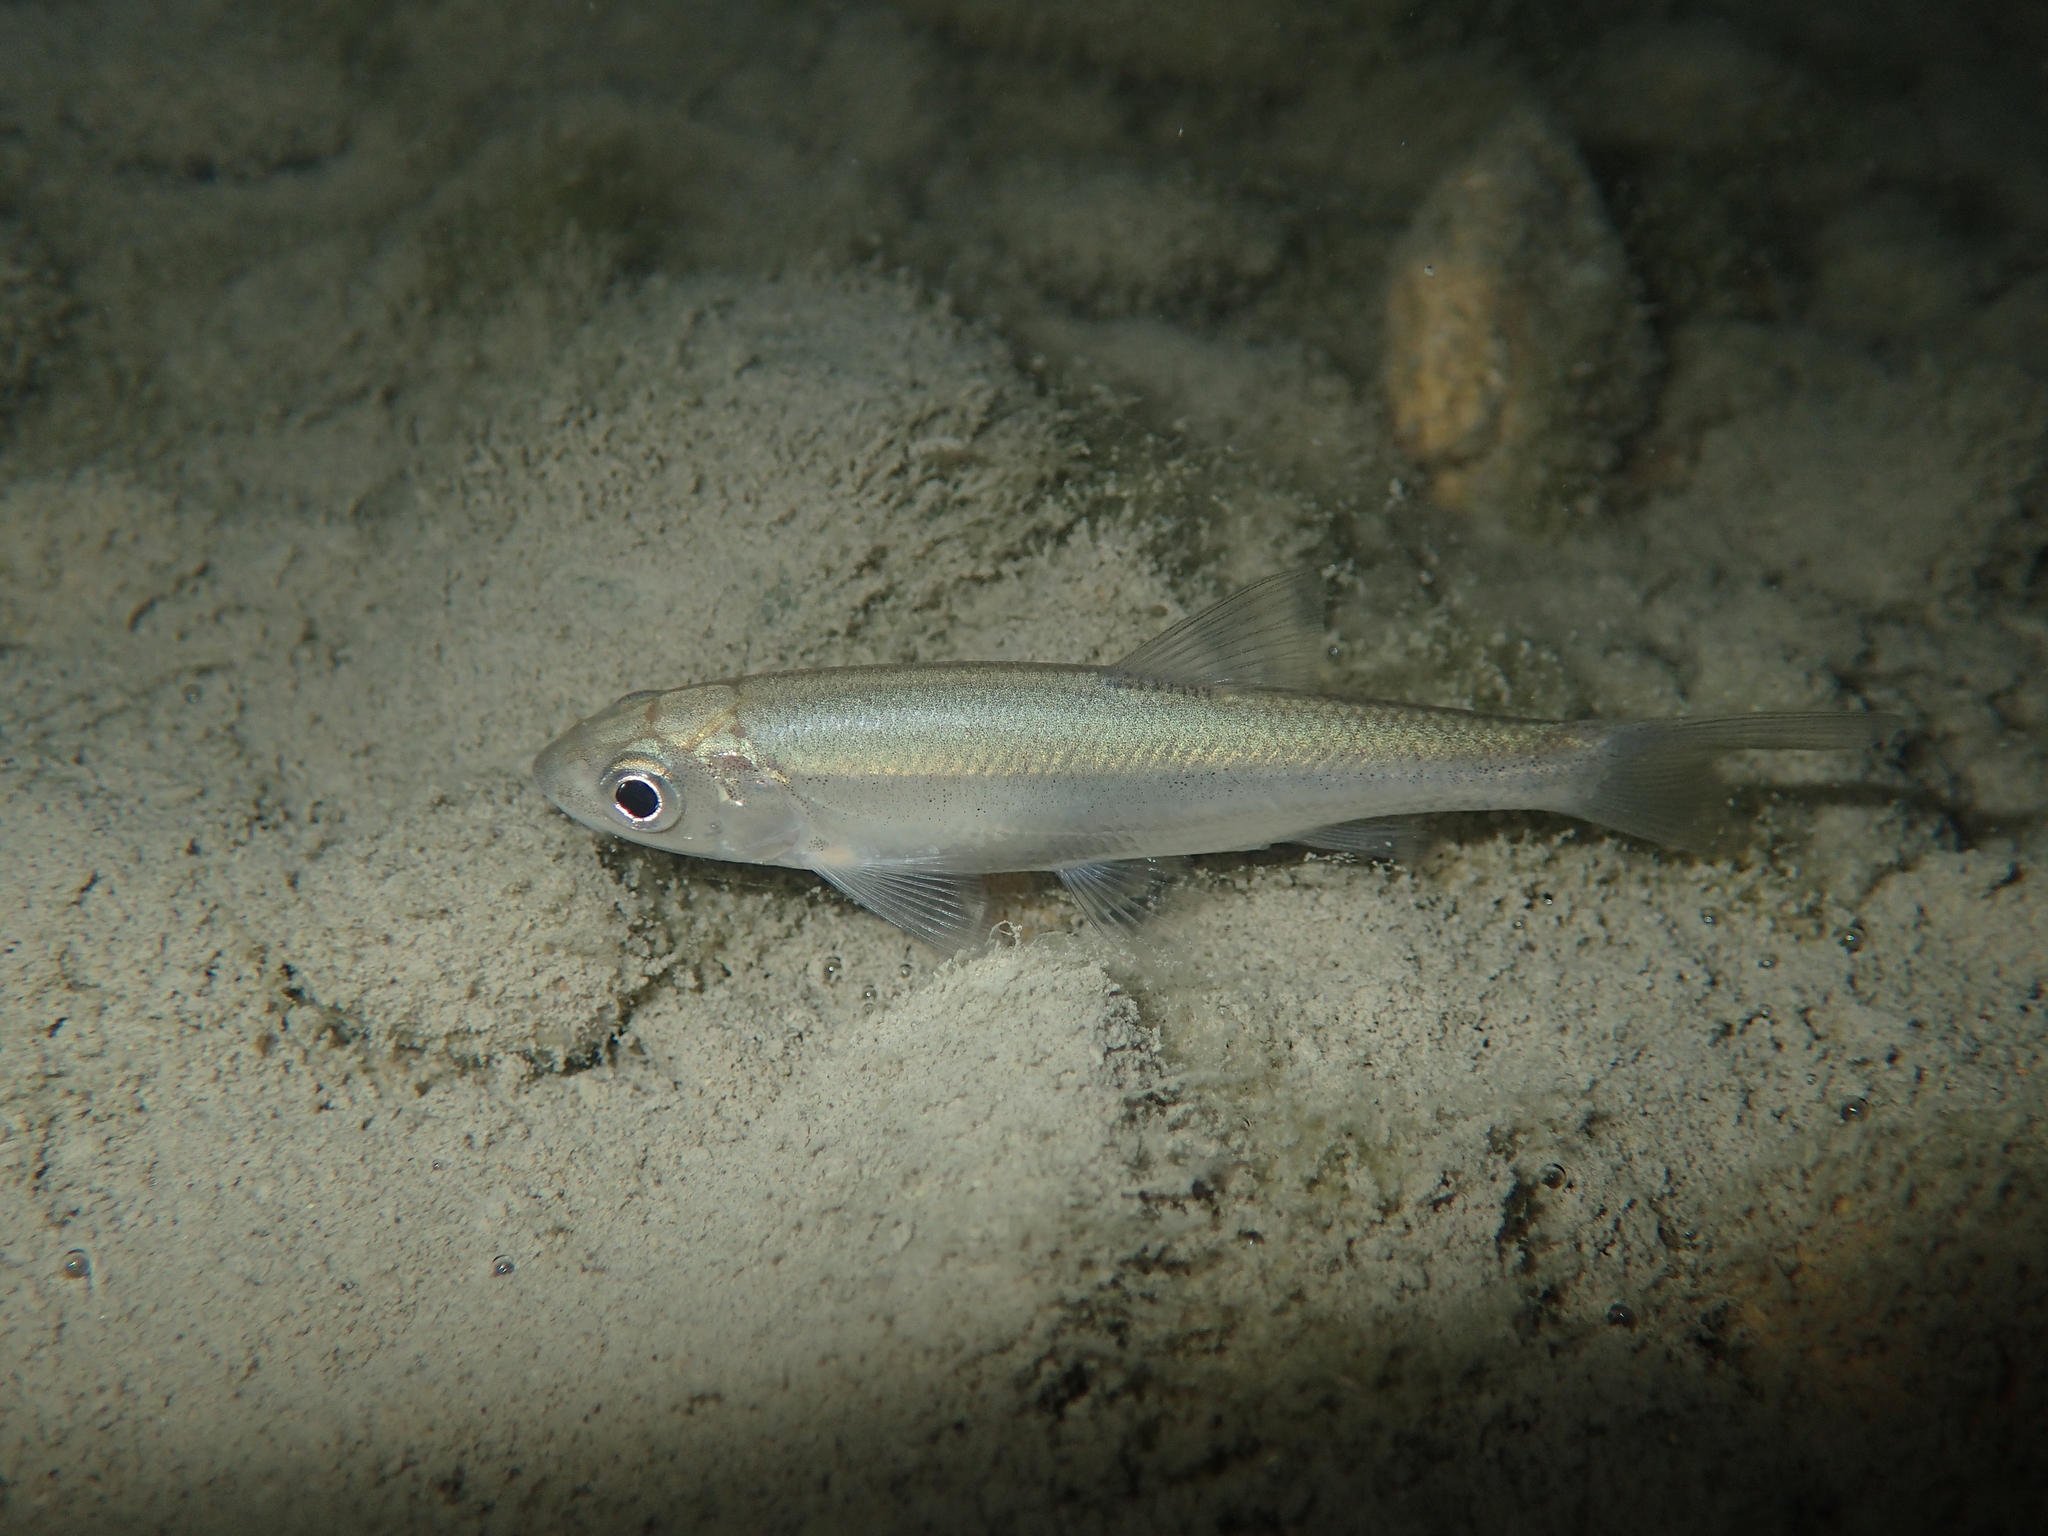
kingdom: Animalia
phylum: Chordata
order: Cypriniformes
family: Cyprinidae
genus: Telestes
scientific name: Telestes souffia
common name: Souffia
